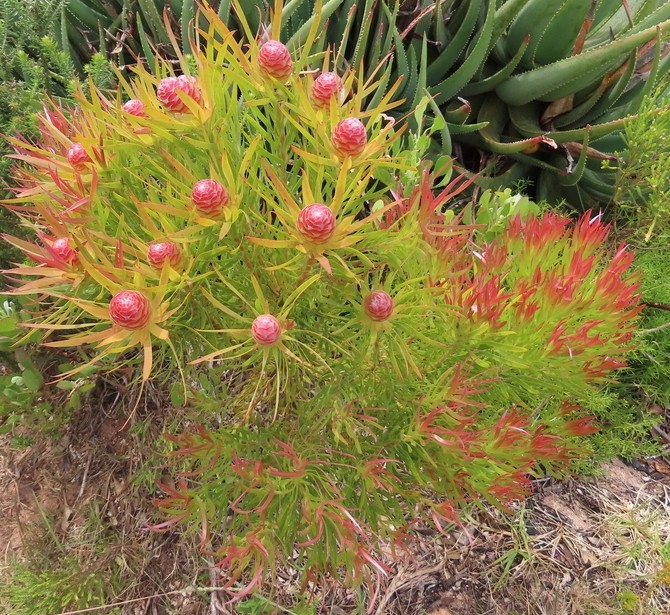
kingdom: Plantae
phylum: Tracheophyta
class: Magnoliopsida
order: Proteales
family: Proteaceae
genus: Leucadendron
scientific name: Leucadendron xanthoconus
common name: Sickle-leaf conebush
